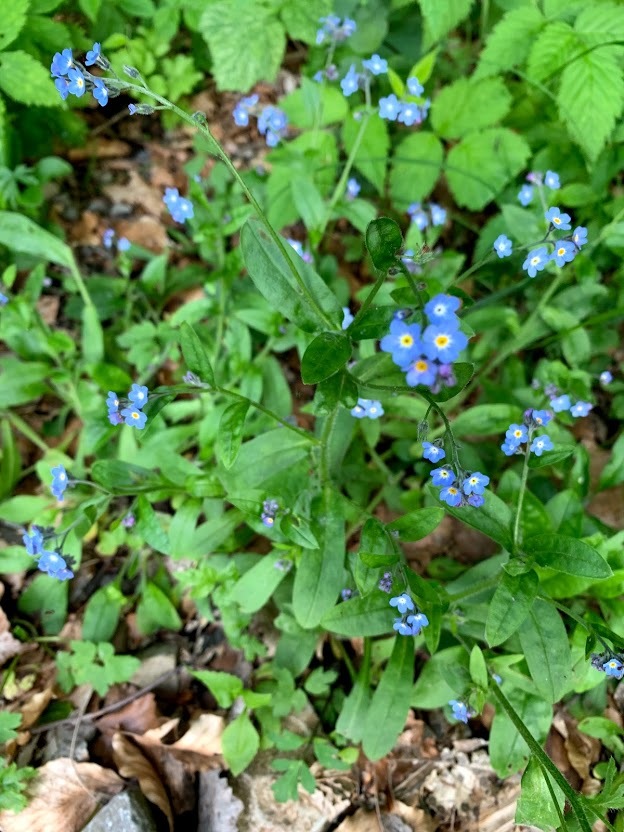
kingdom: Plantae
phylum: Tracheophyta
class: Magnoliopsida
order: Boraginales
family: Boraginaceae
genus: Myosotis
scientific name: Myosotis sylvatica
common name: Wood forget-me-not
